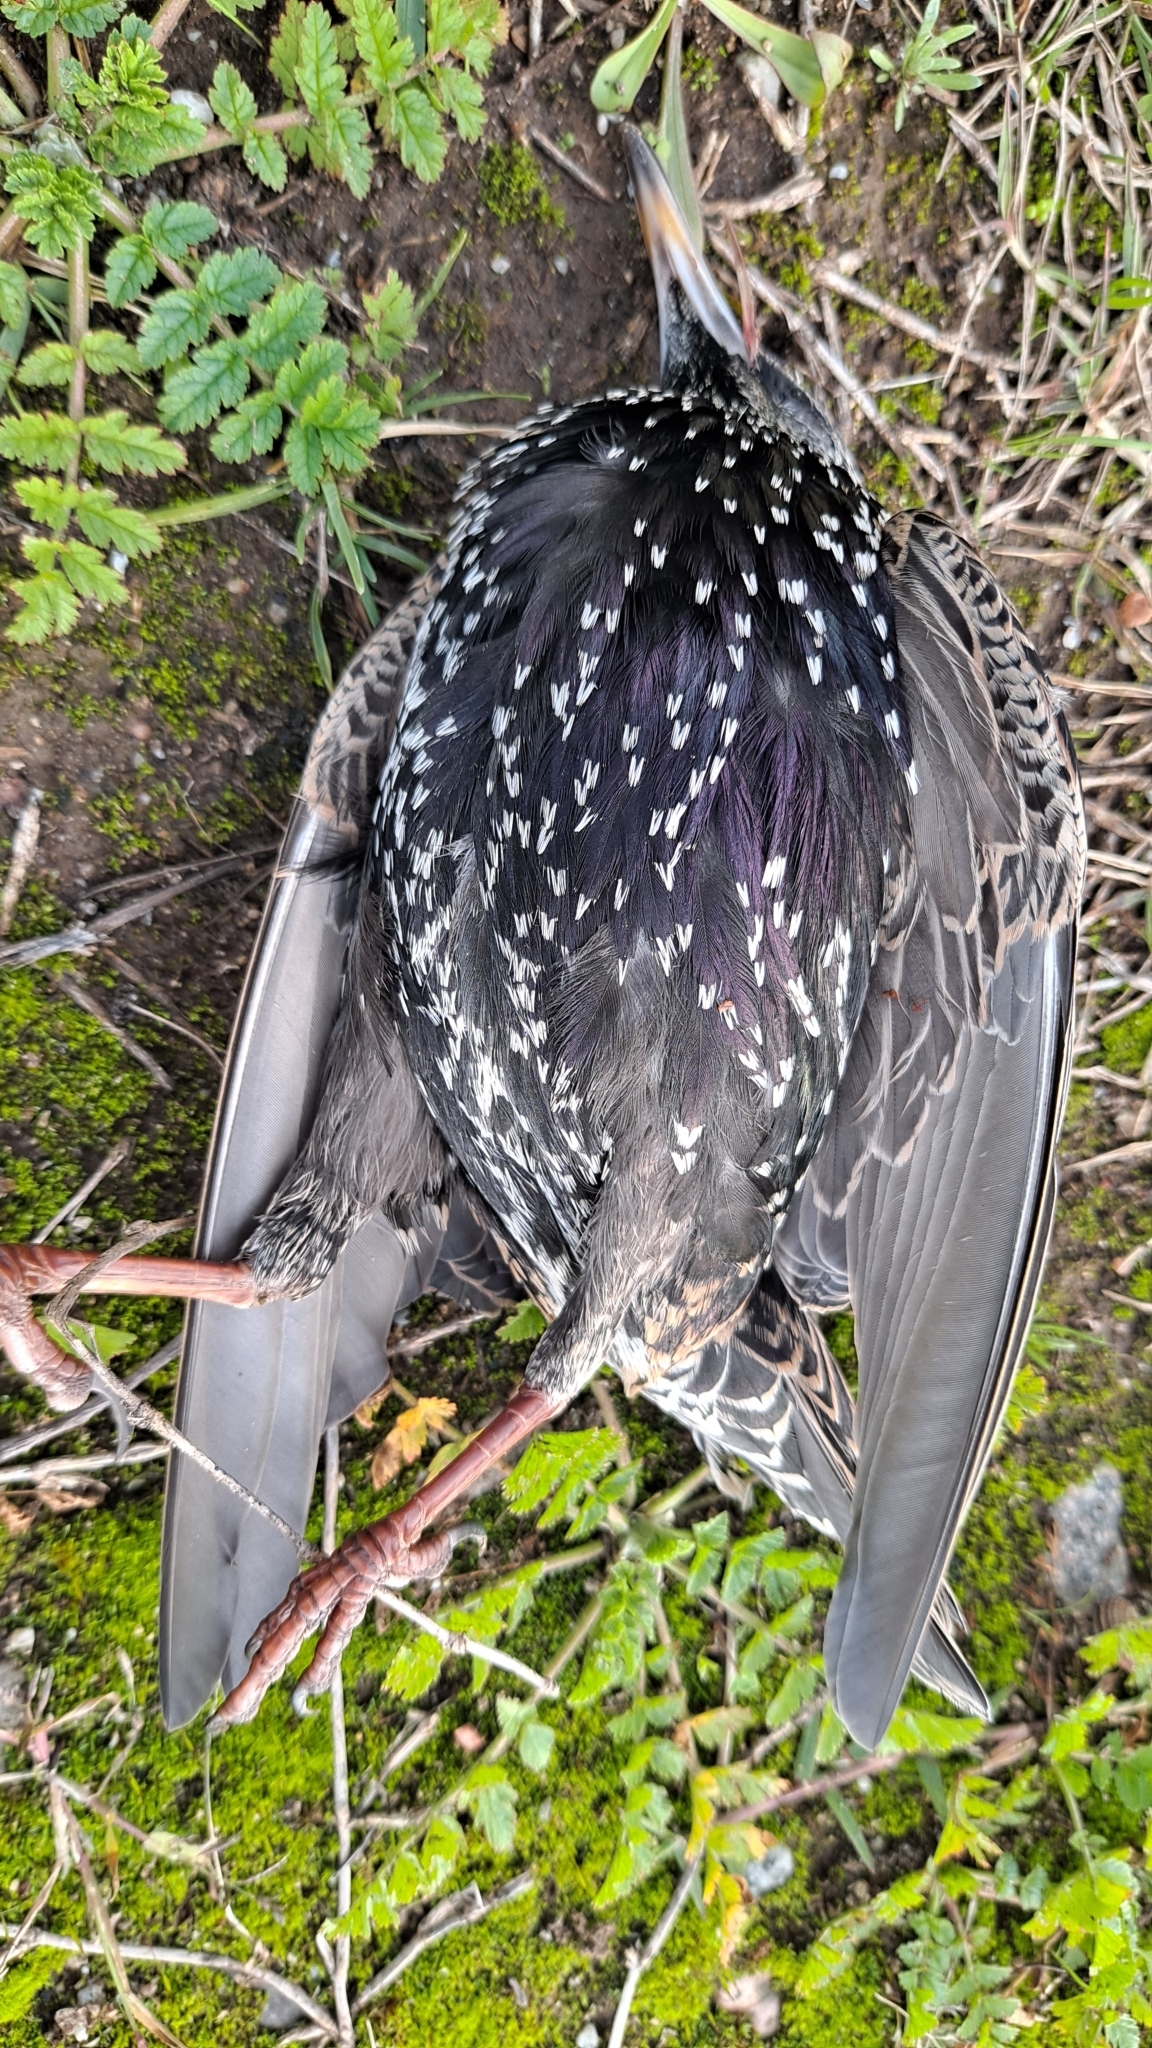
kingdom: Animalia
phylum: Chordata
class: Aves
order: Passeriformes
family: Sturnidae
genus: Sturnus
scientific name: Sturnus vulgaris
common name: Common starling
